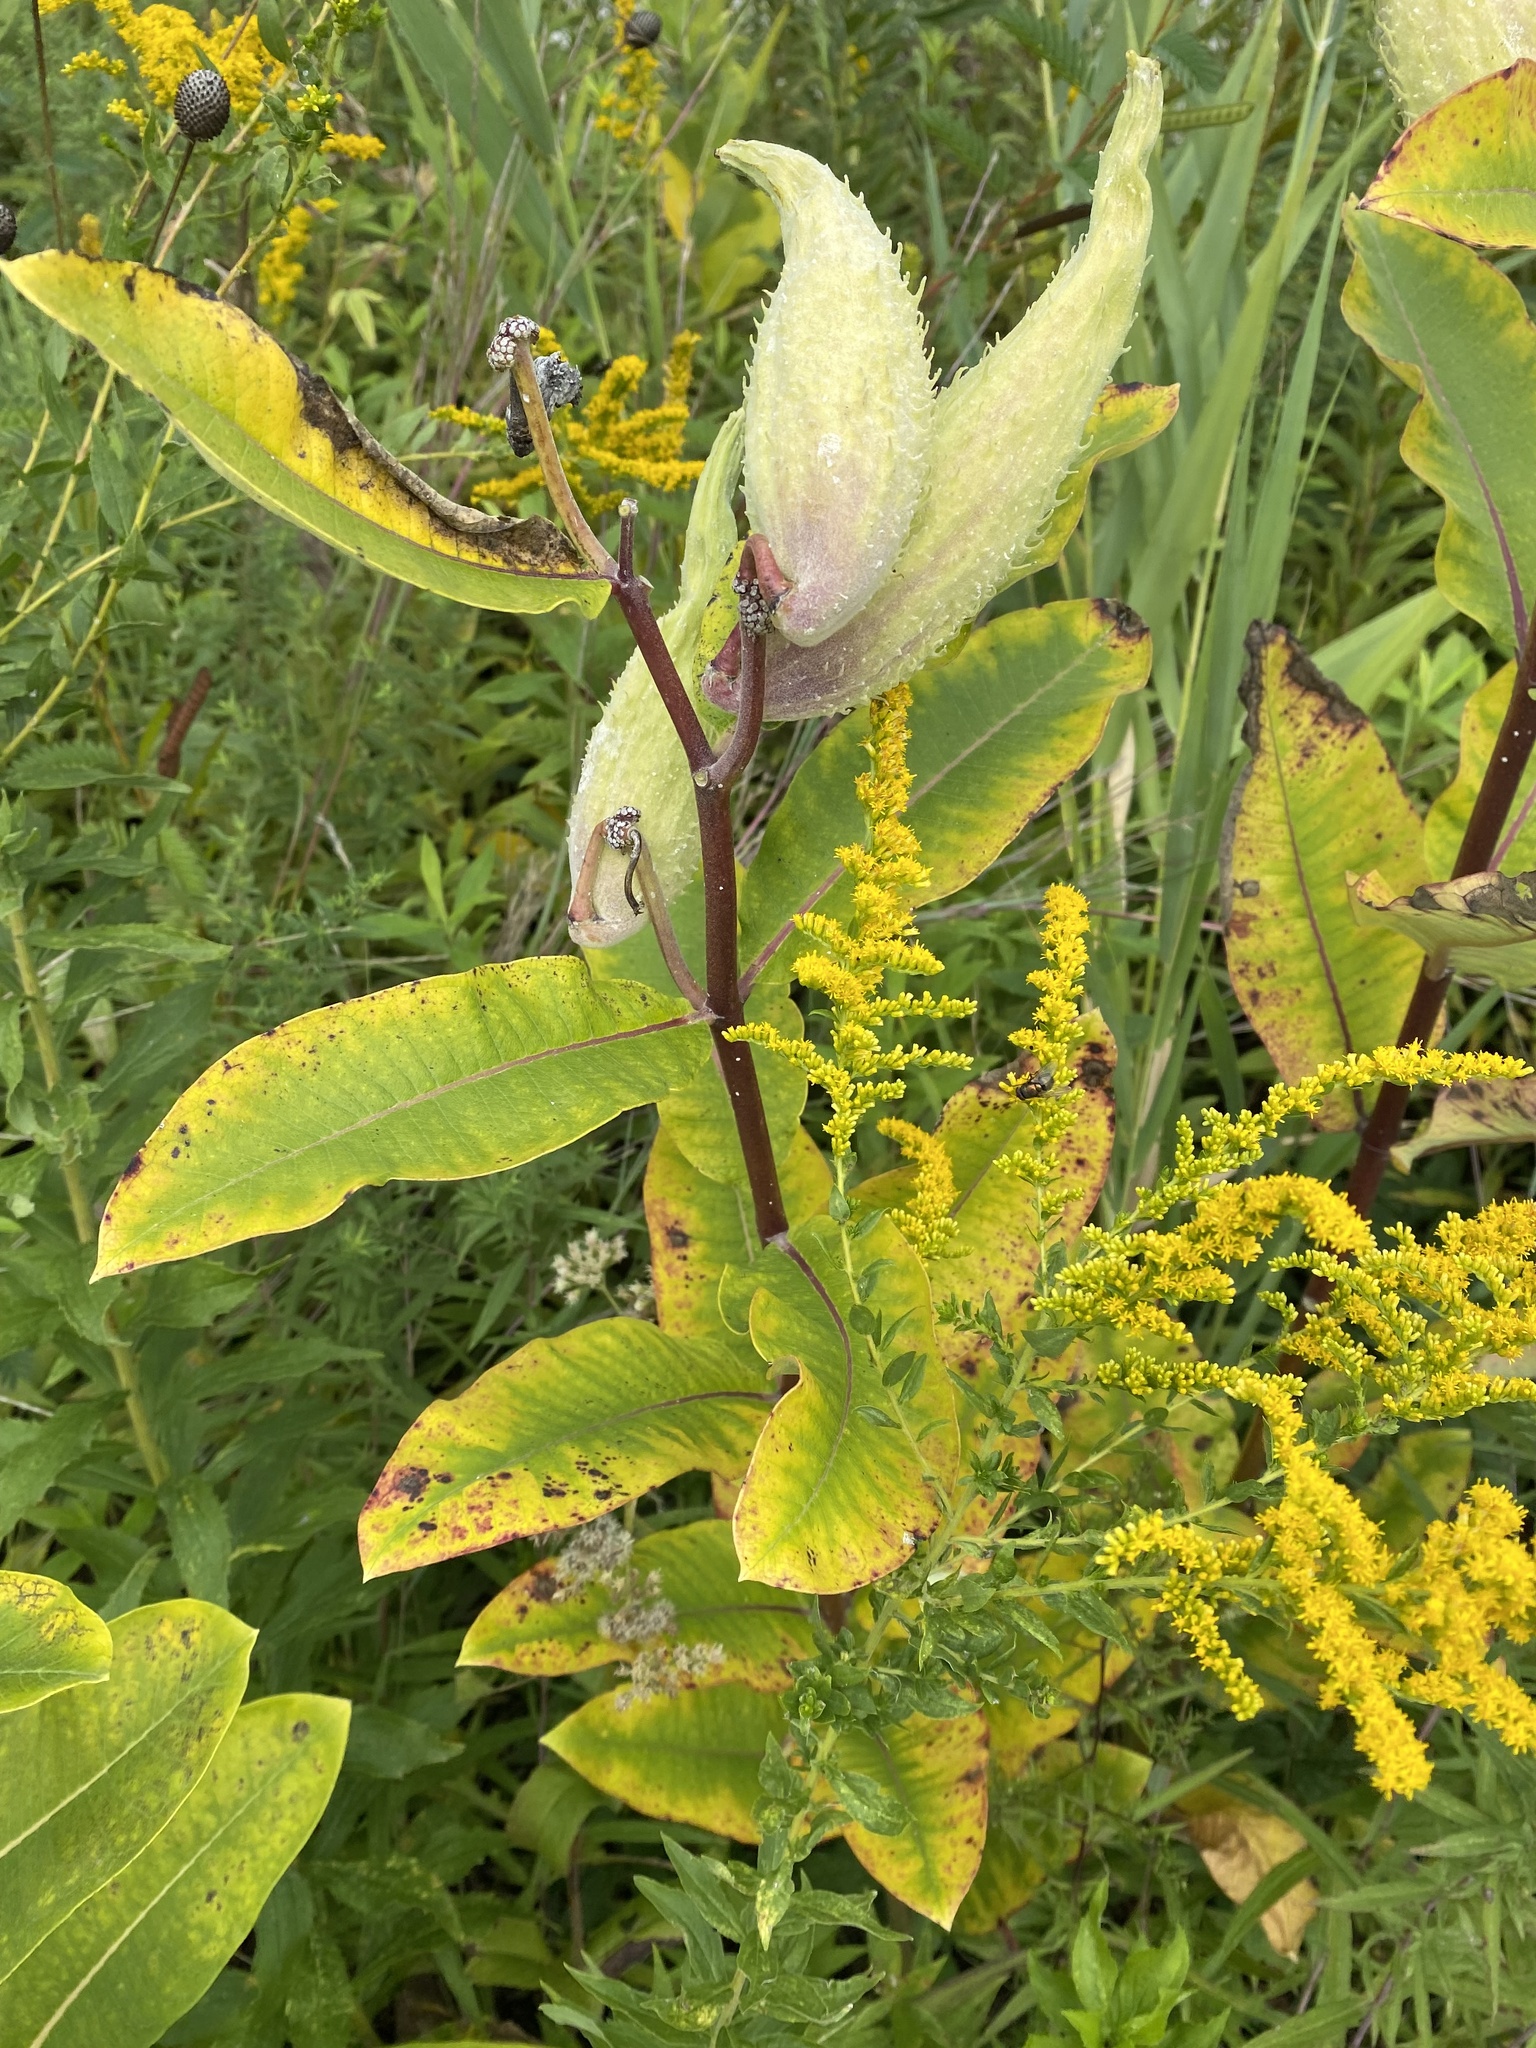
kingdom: Plantae
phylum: Tracheophyta
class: Magnoliopsida
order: Gentianales
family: Apocynaceae
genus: Asclepias
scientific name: Asclepias syriaca
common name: Common milkweed
